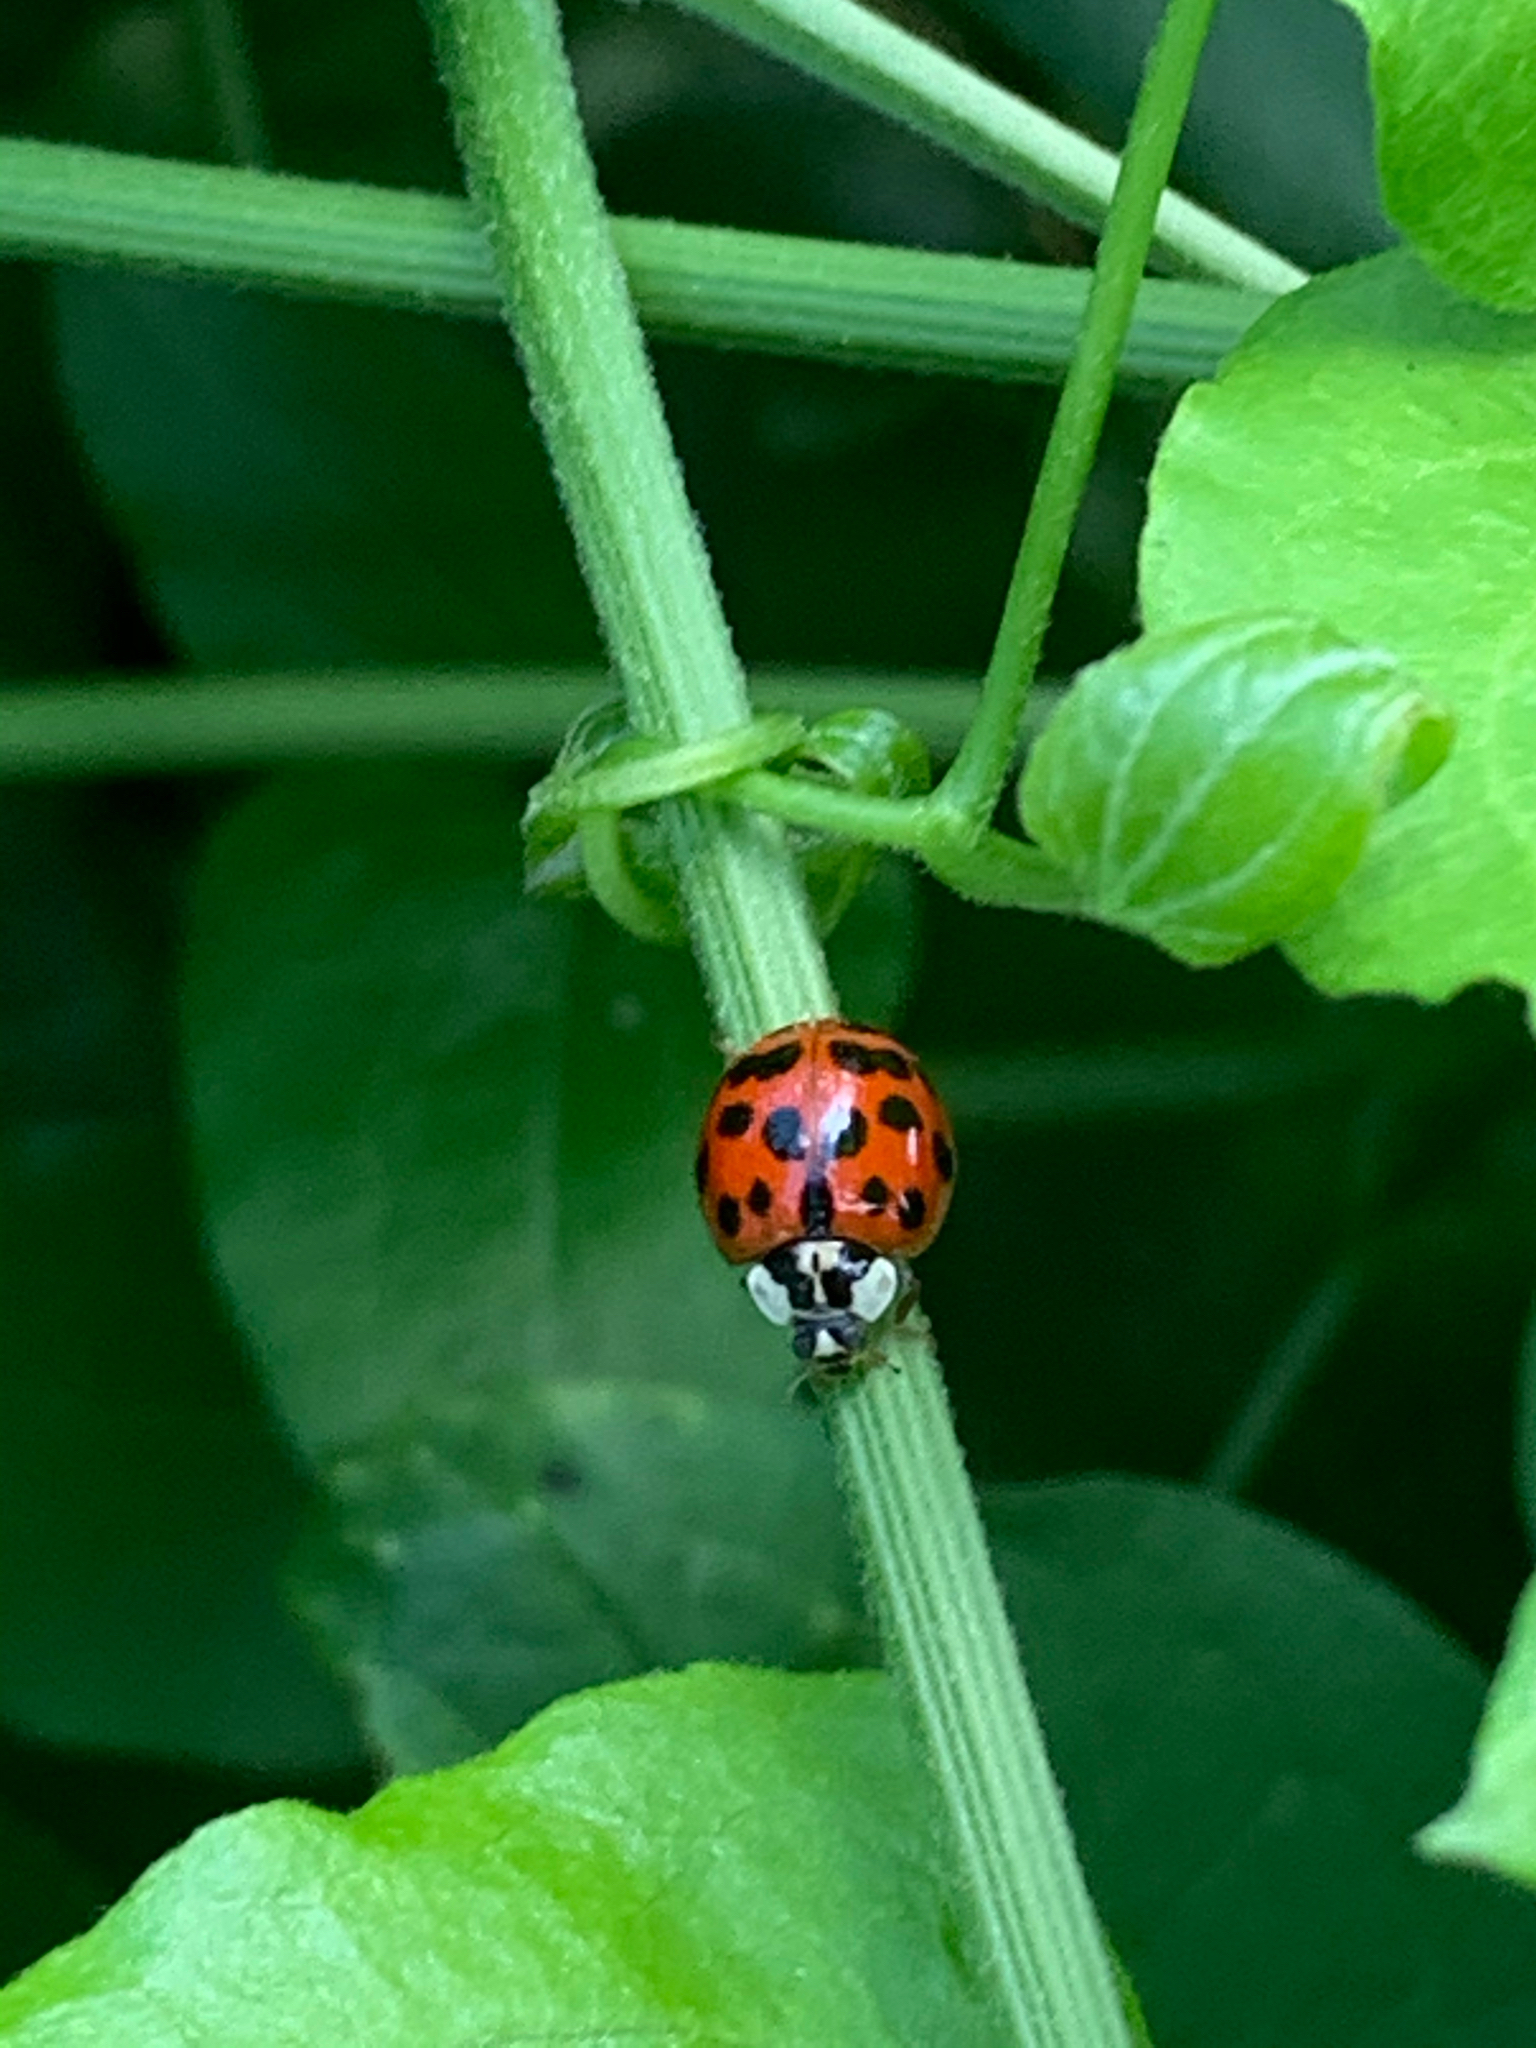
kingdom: Animalia
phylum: Arthropoda
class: Insecta
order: Coleoptera
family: Coccinellidae
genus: Harmonia
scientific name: Harmonia axyridis
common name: Harlequin ladybird
